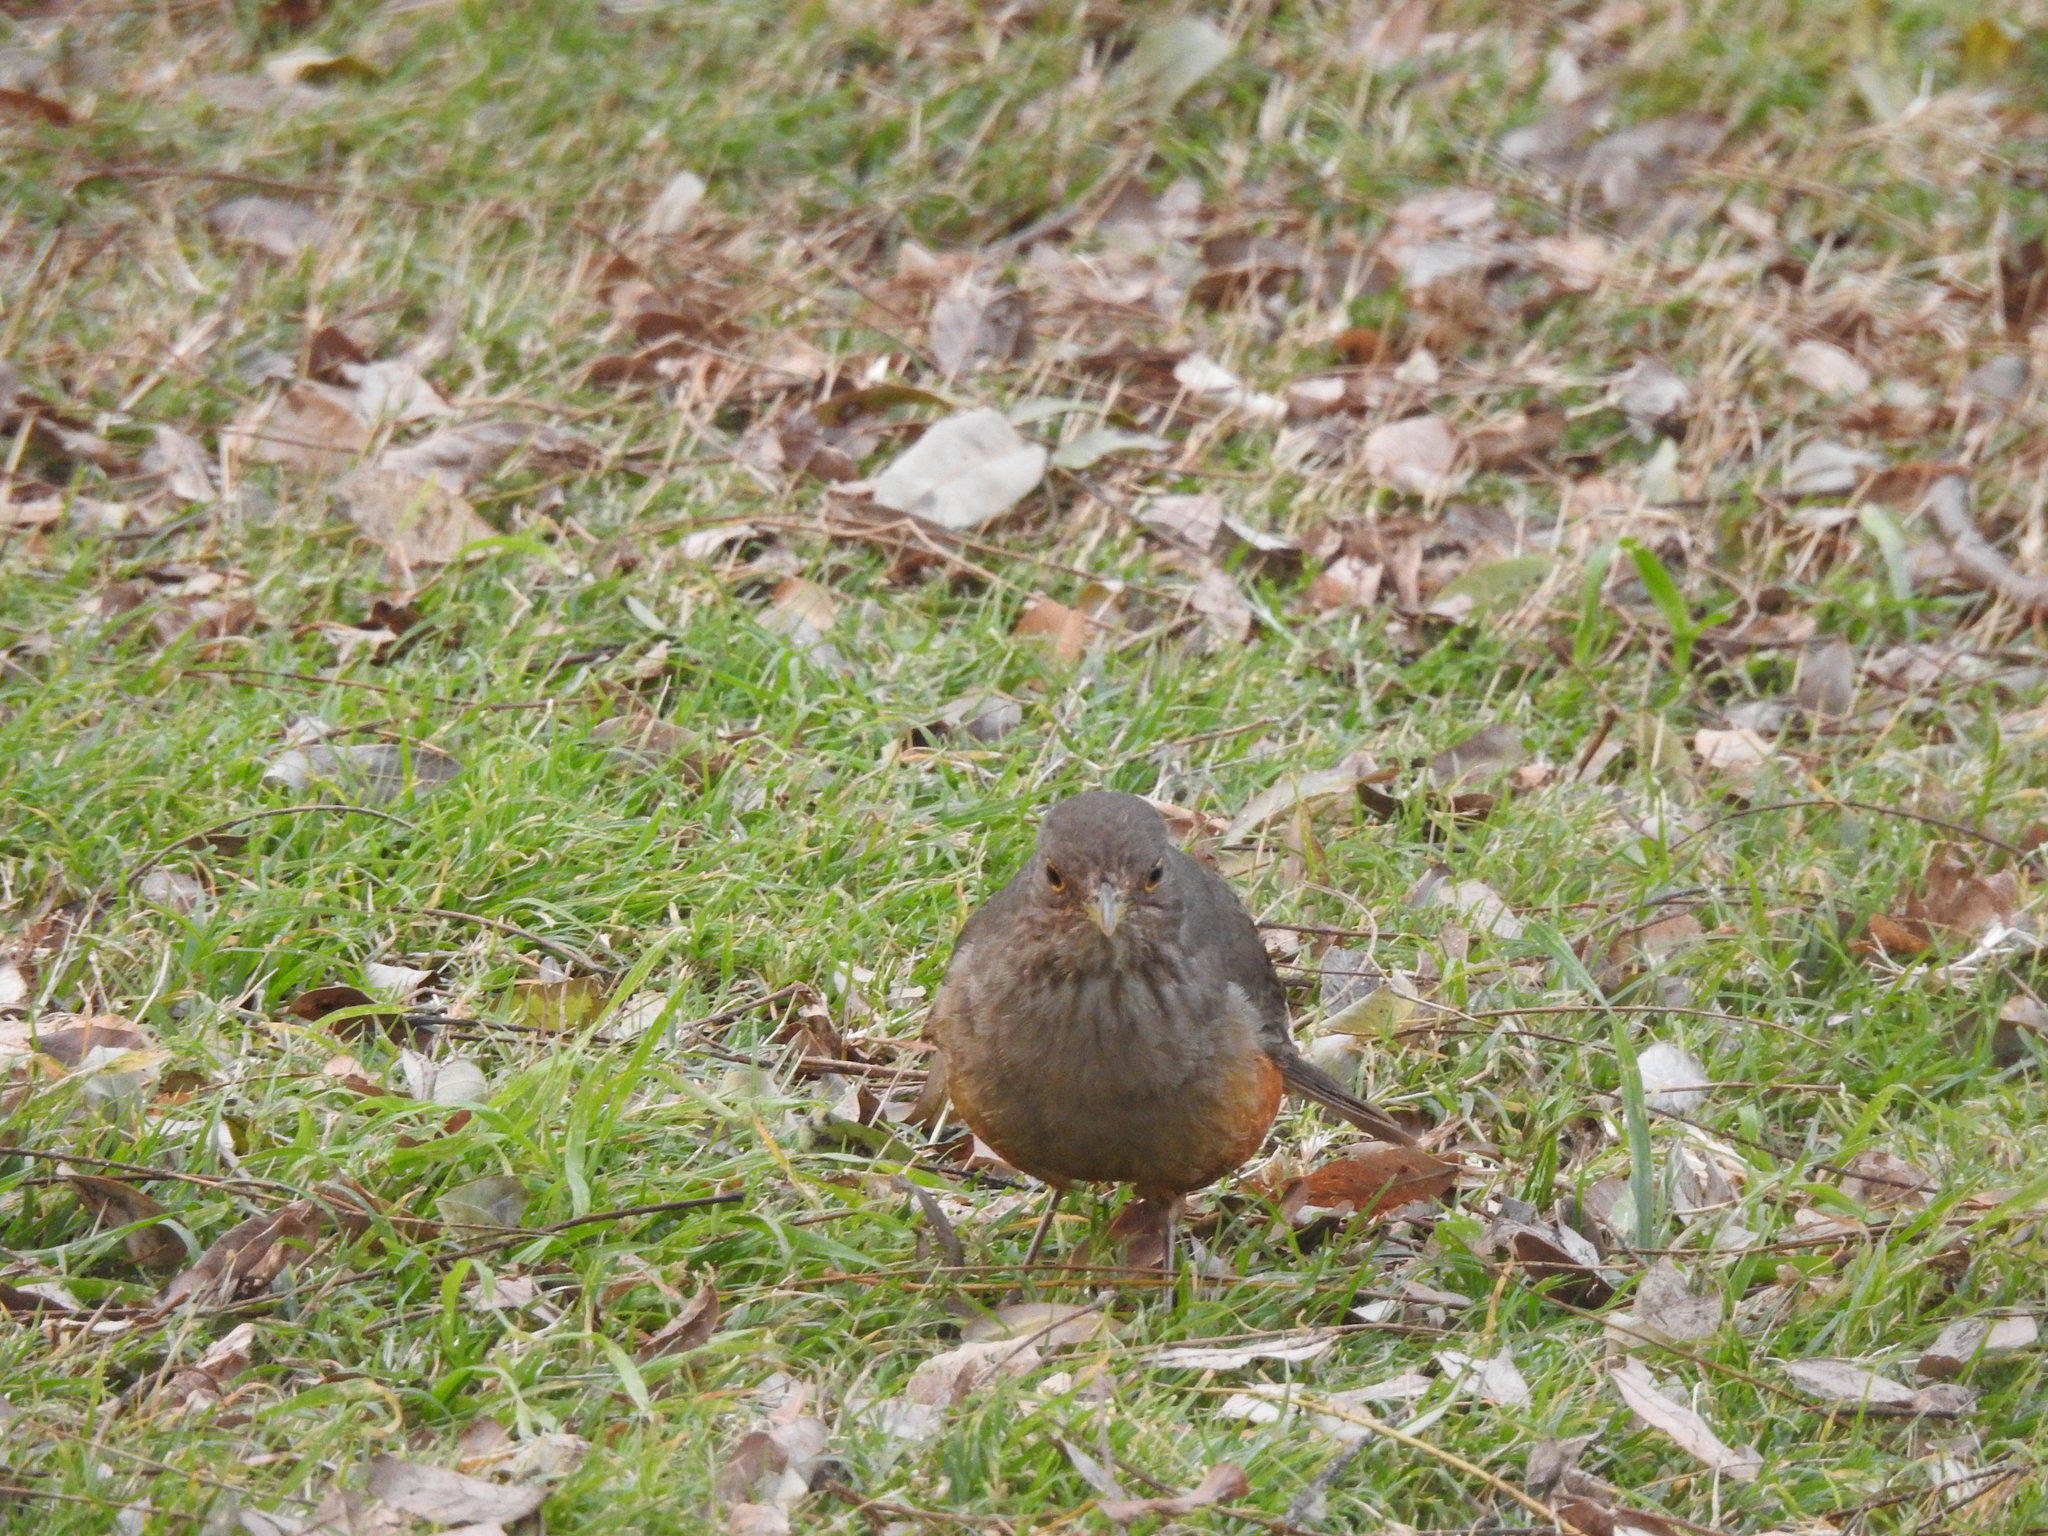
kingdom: Animalia
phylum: Chordata
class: Aves
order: Passeriformes
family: Turdidae
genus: Turdus
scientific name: Turdus rufiventris
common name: Rufous-bellied thrush
